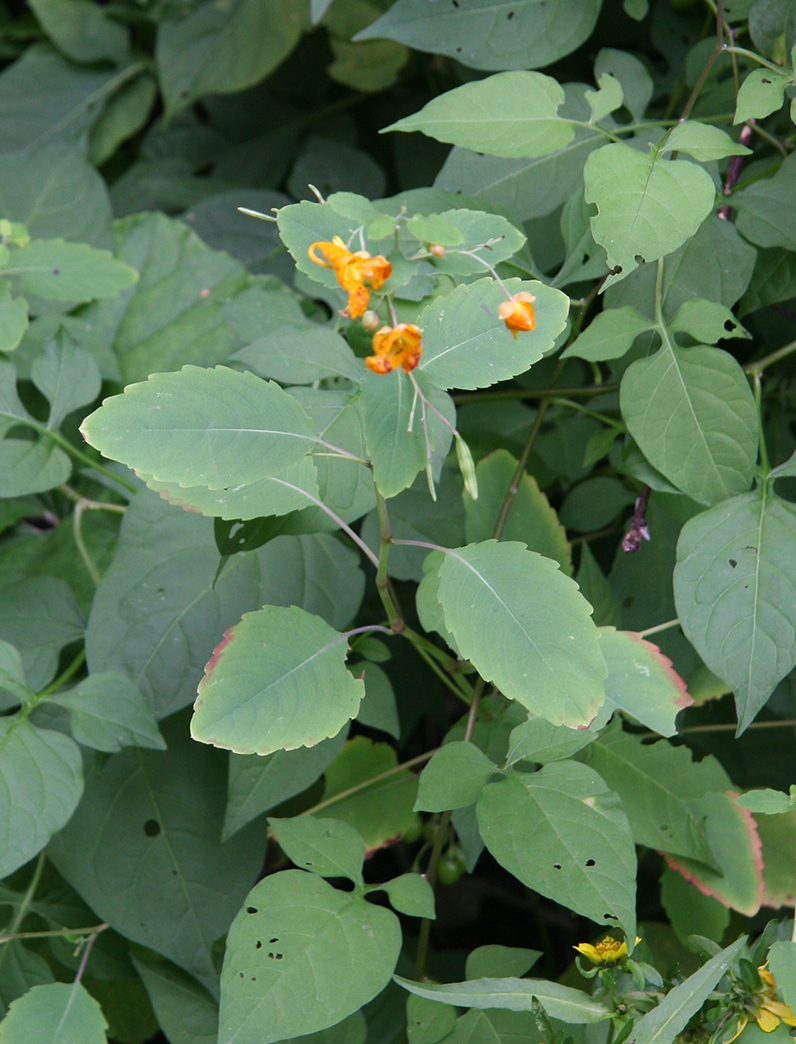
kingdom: Plantae
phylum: Tracheophyta
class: Magnoliopsida
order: Ericales
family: Balsaminaceae
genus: Impatiens
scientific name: Impatiens capensis
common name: Orange balsam
